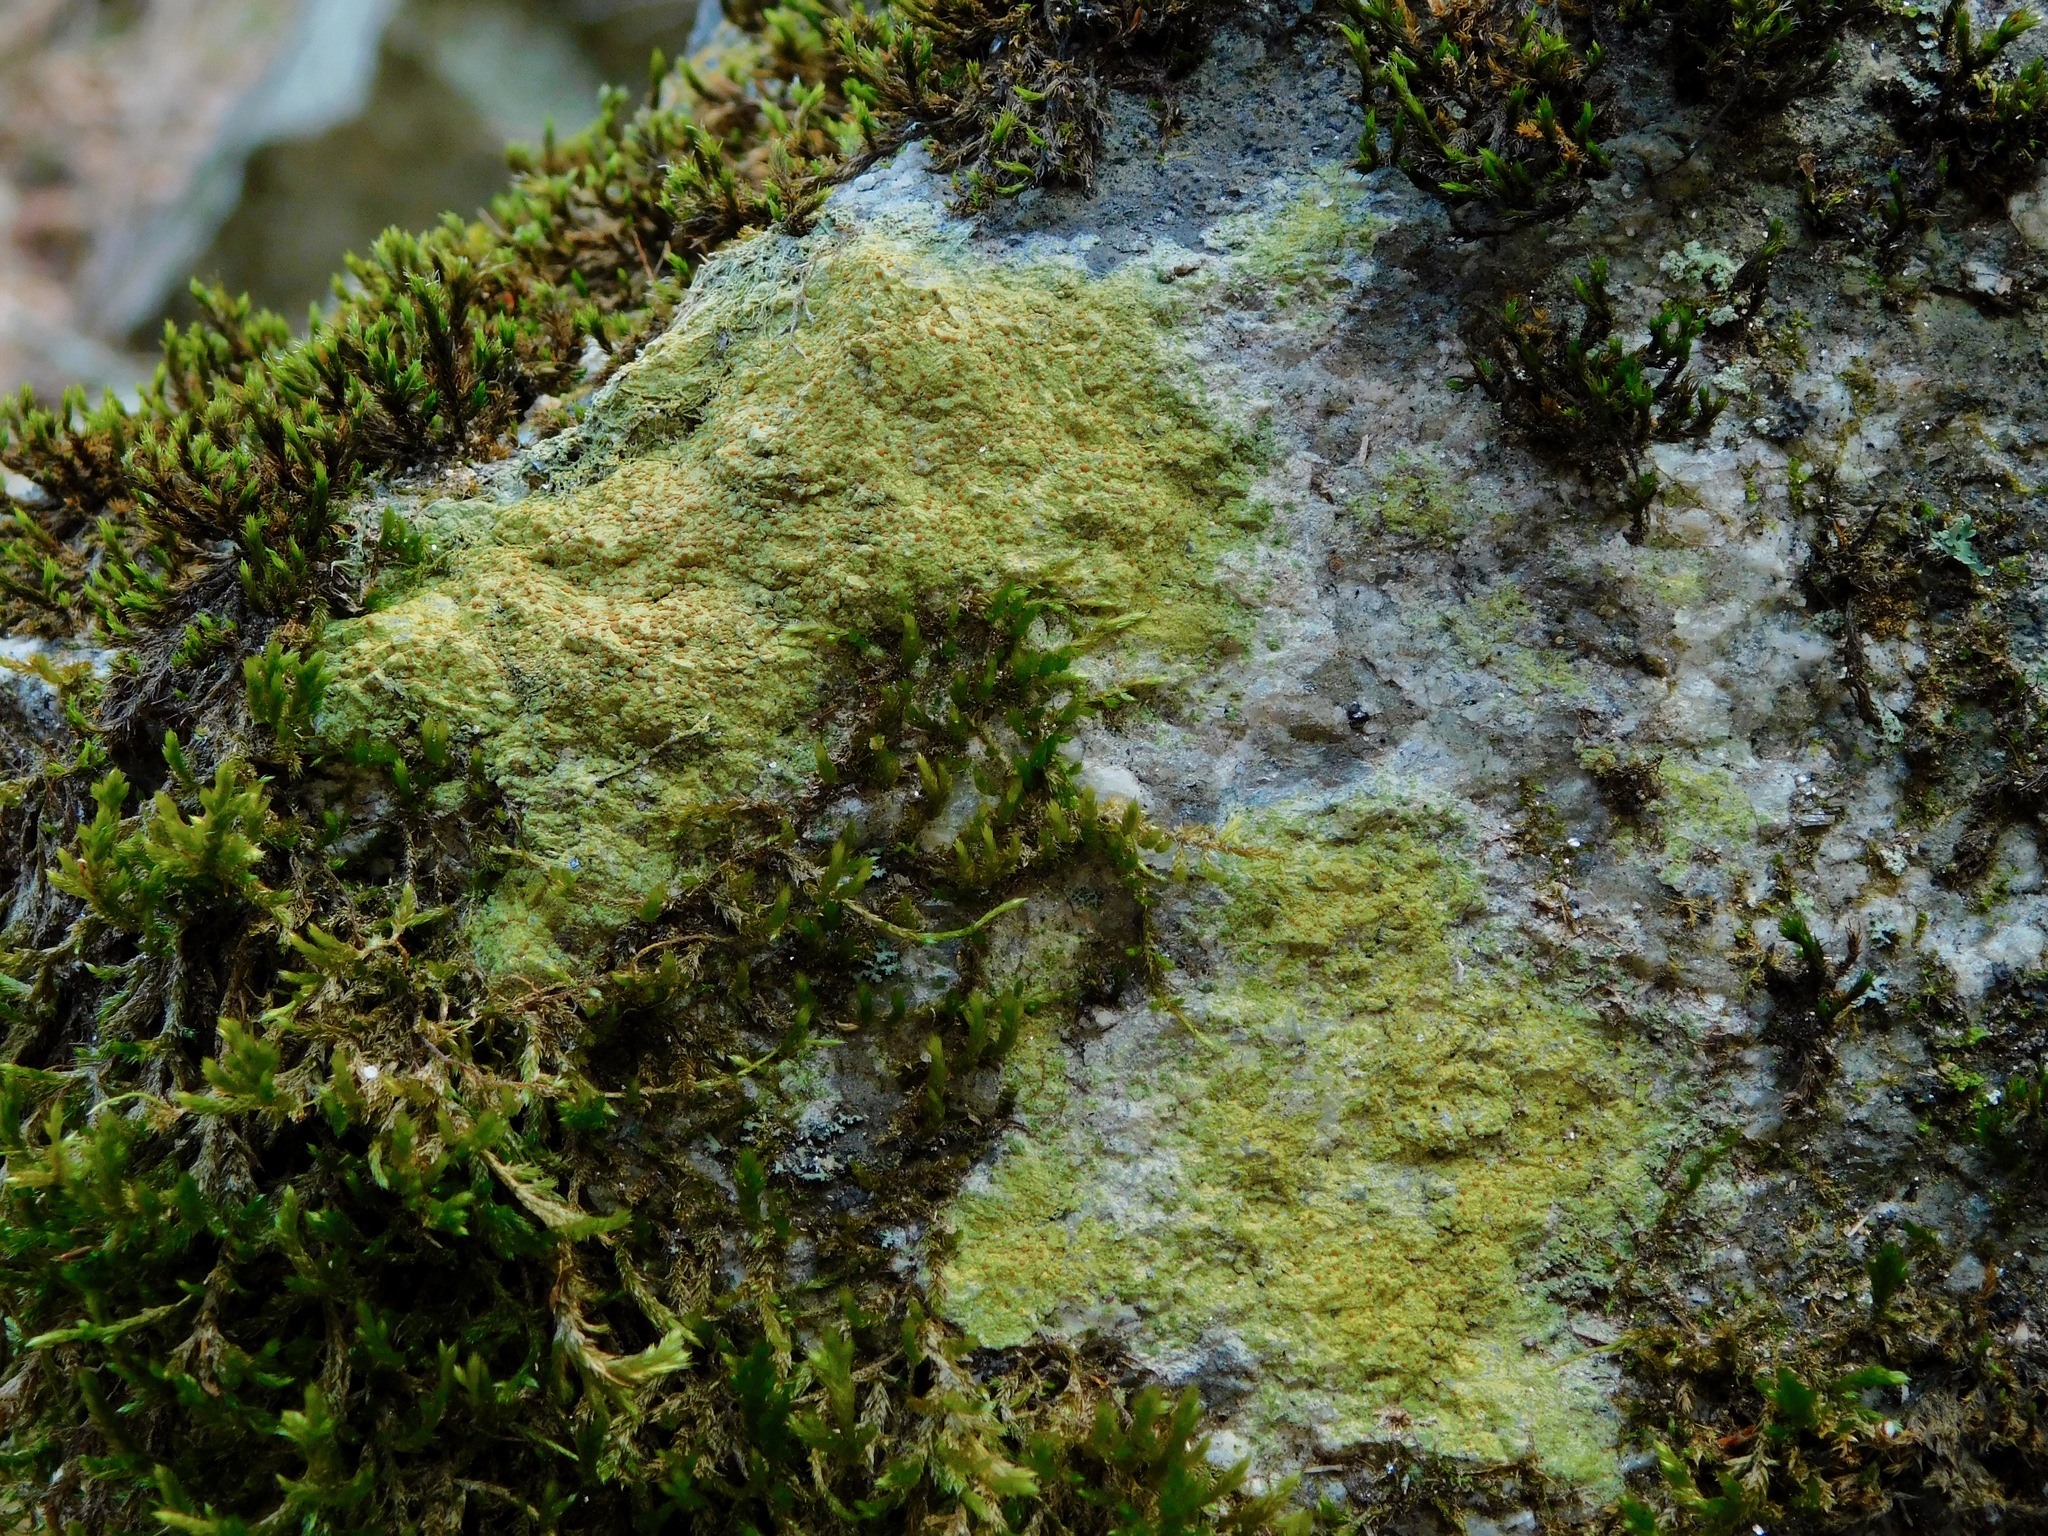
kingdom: Fungi
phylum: Ascomycota
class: Lecanoromycetes
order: Teloschistales
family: Teloschistaceae
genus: Gyalolechia
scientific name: Gyalolechia flavovirescens
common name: Sulphur firedot
